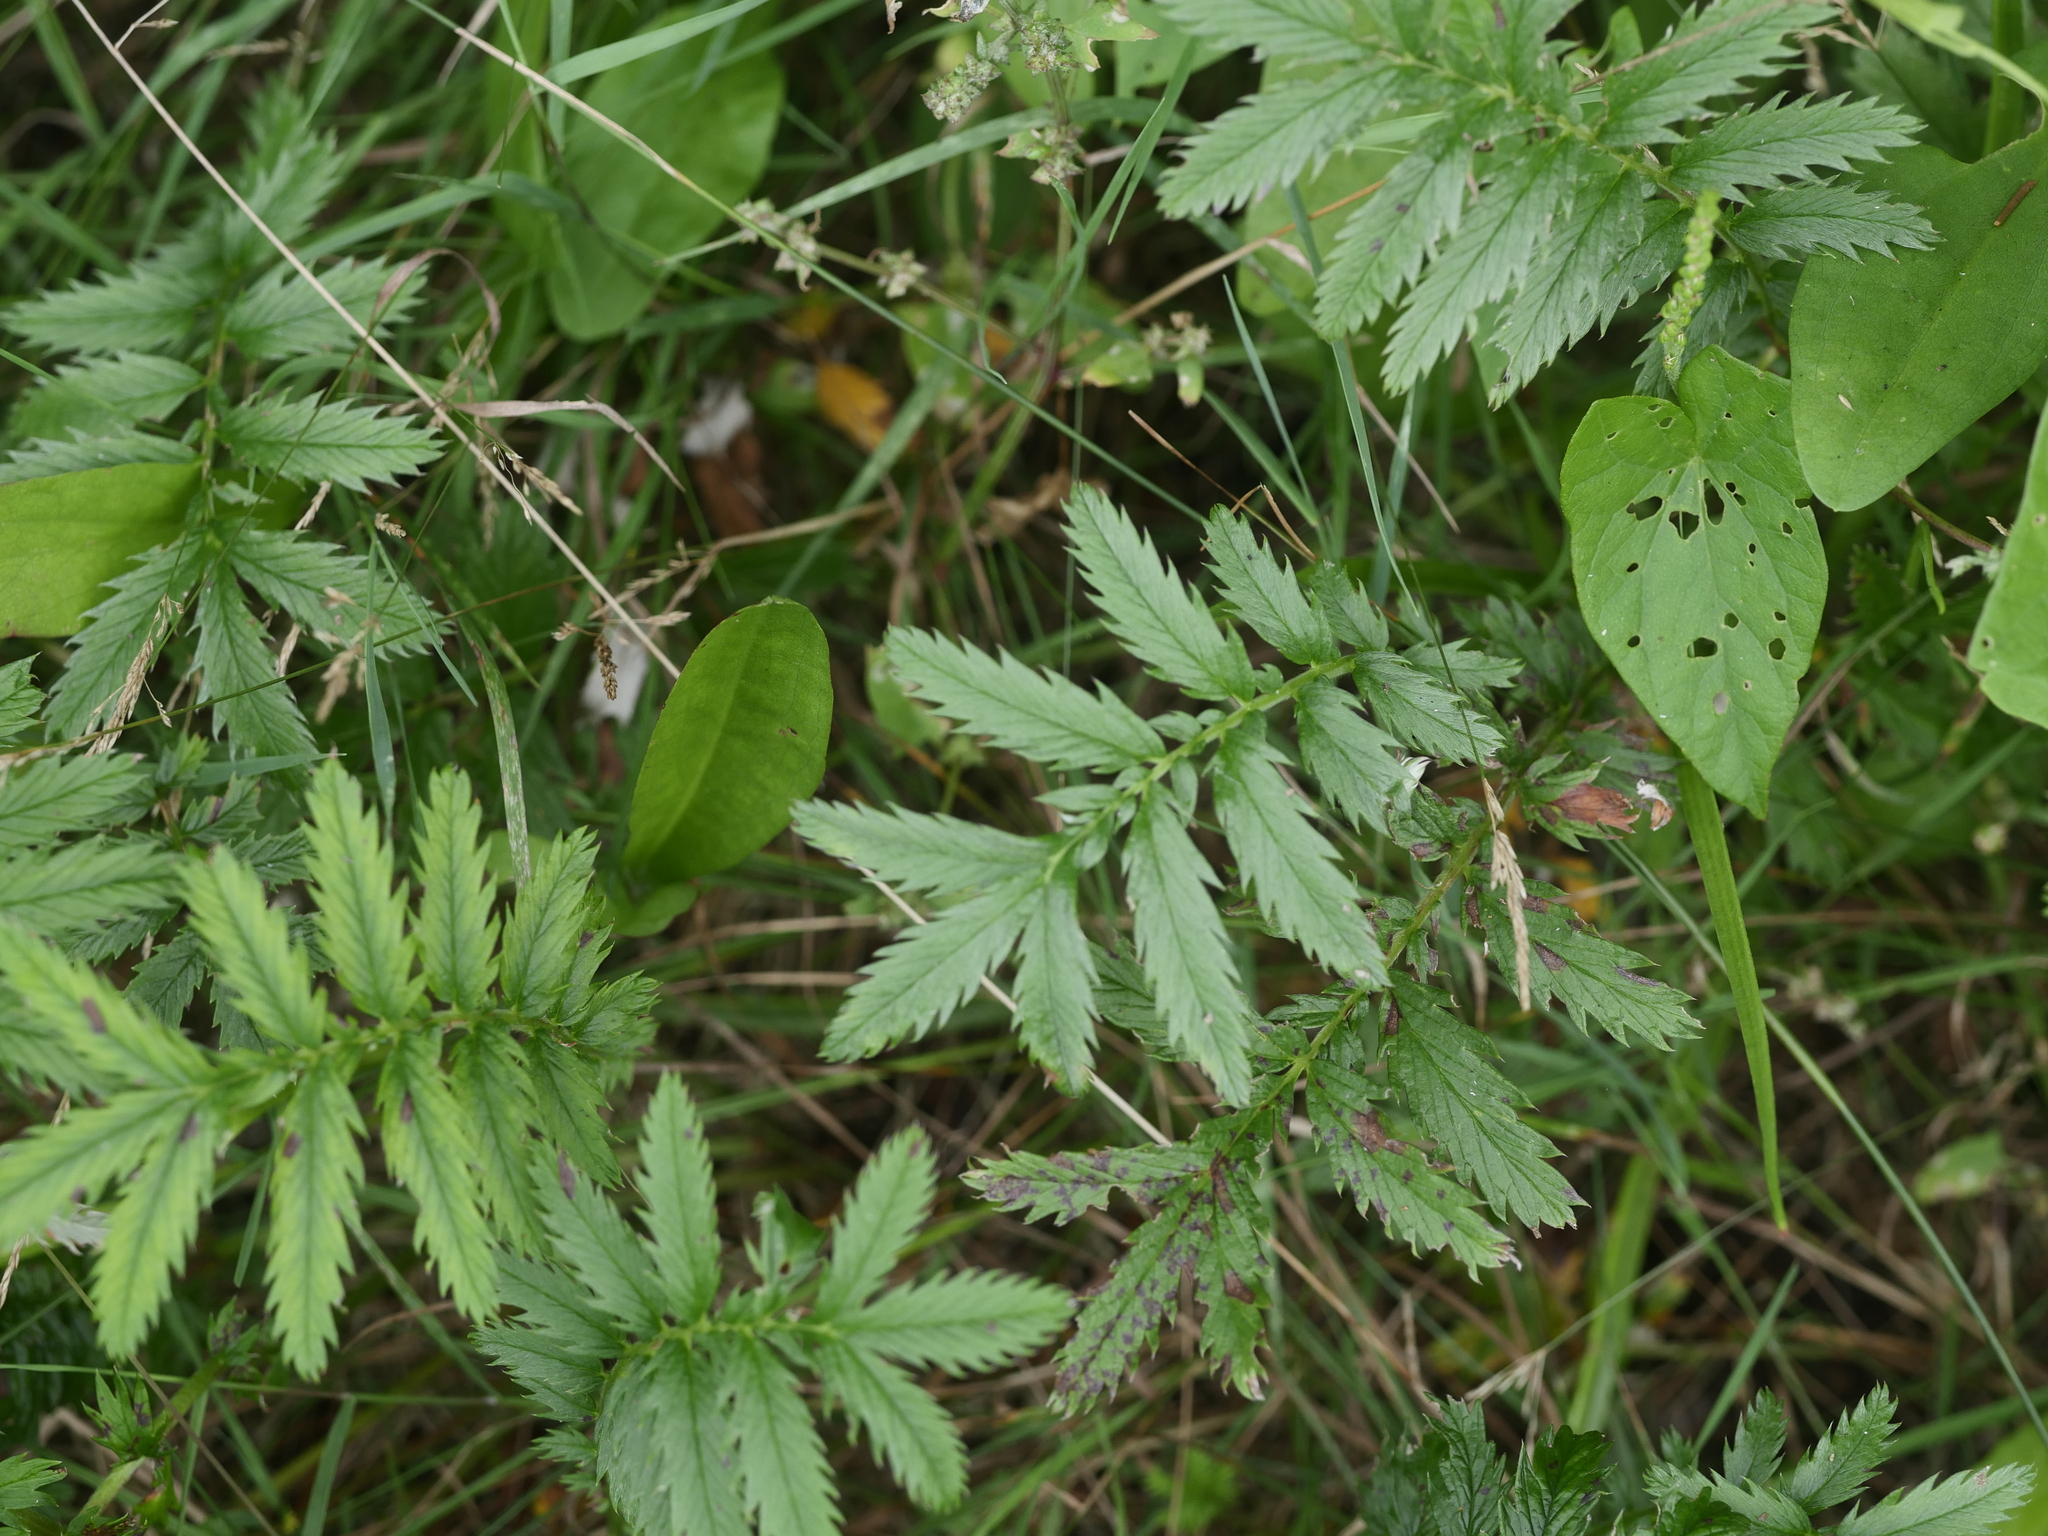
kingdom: Plantae
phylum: Tracheophyta
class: Magnoliopsida
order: Rosales
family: Rosaceae
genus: Argentina
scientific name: Argentina anserina
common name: Common silverweed
